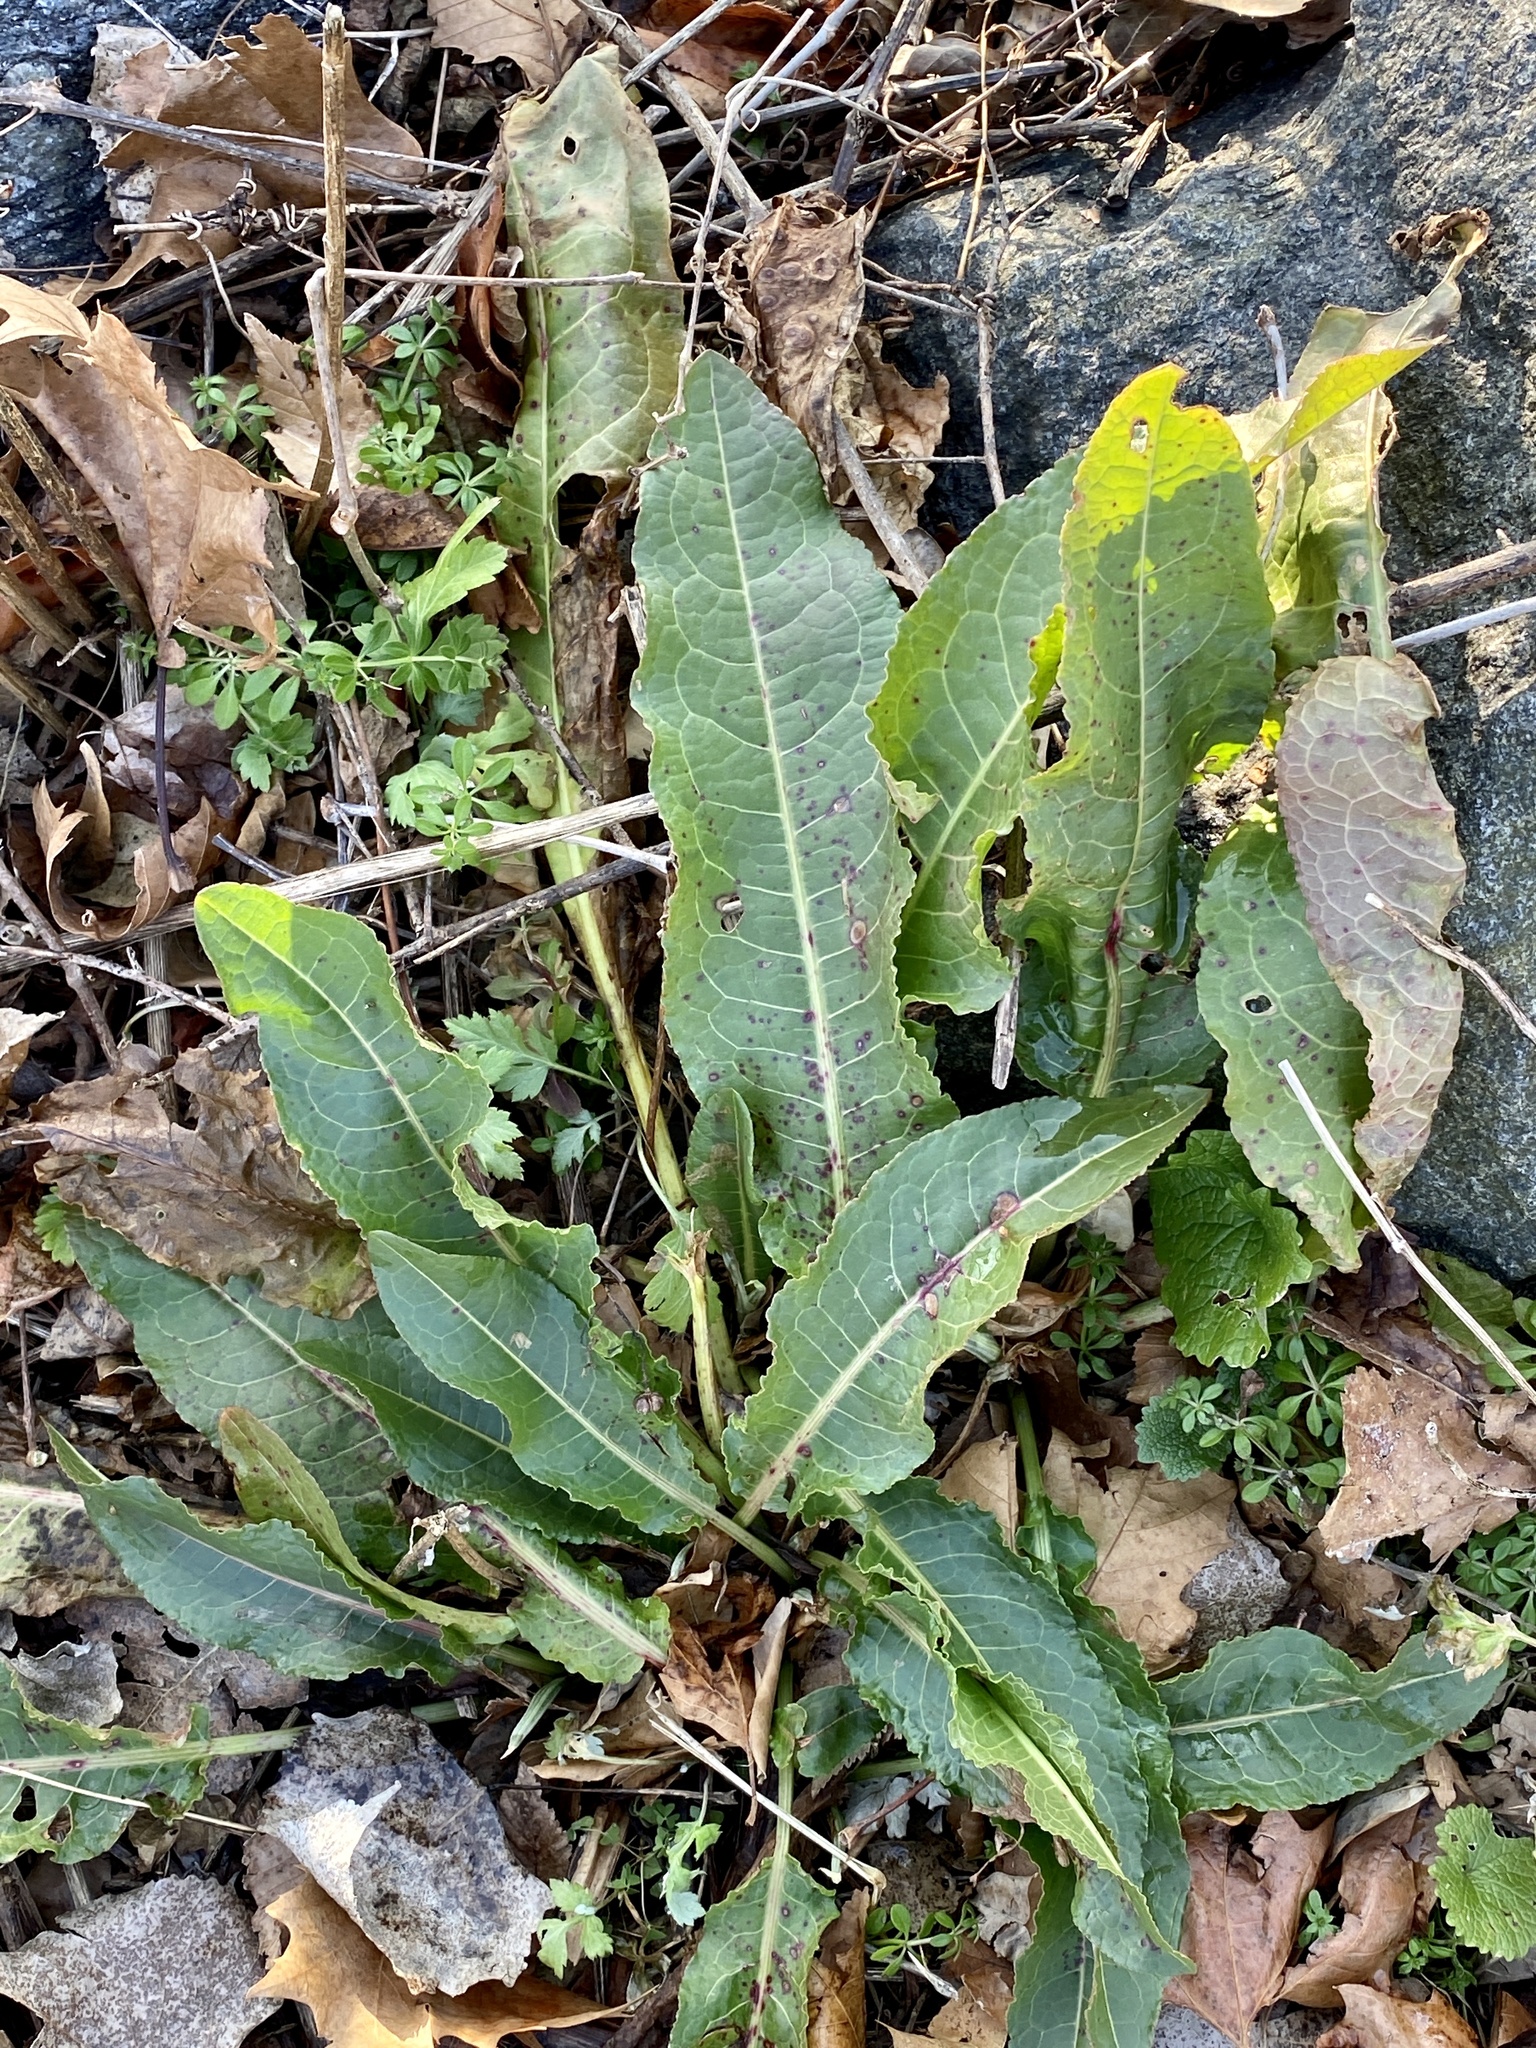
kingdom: Plantae
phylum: Tracheophyta
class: Magnoliopsida
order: Caryophyllales
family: Polygonaceae
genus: Rumex
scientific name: Rumex crispus
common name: Curled dock
